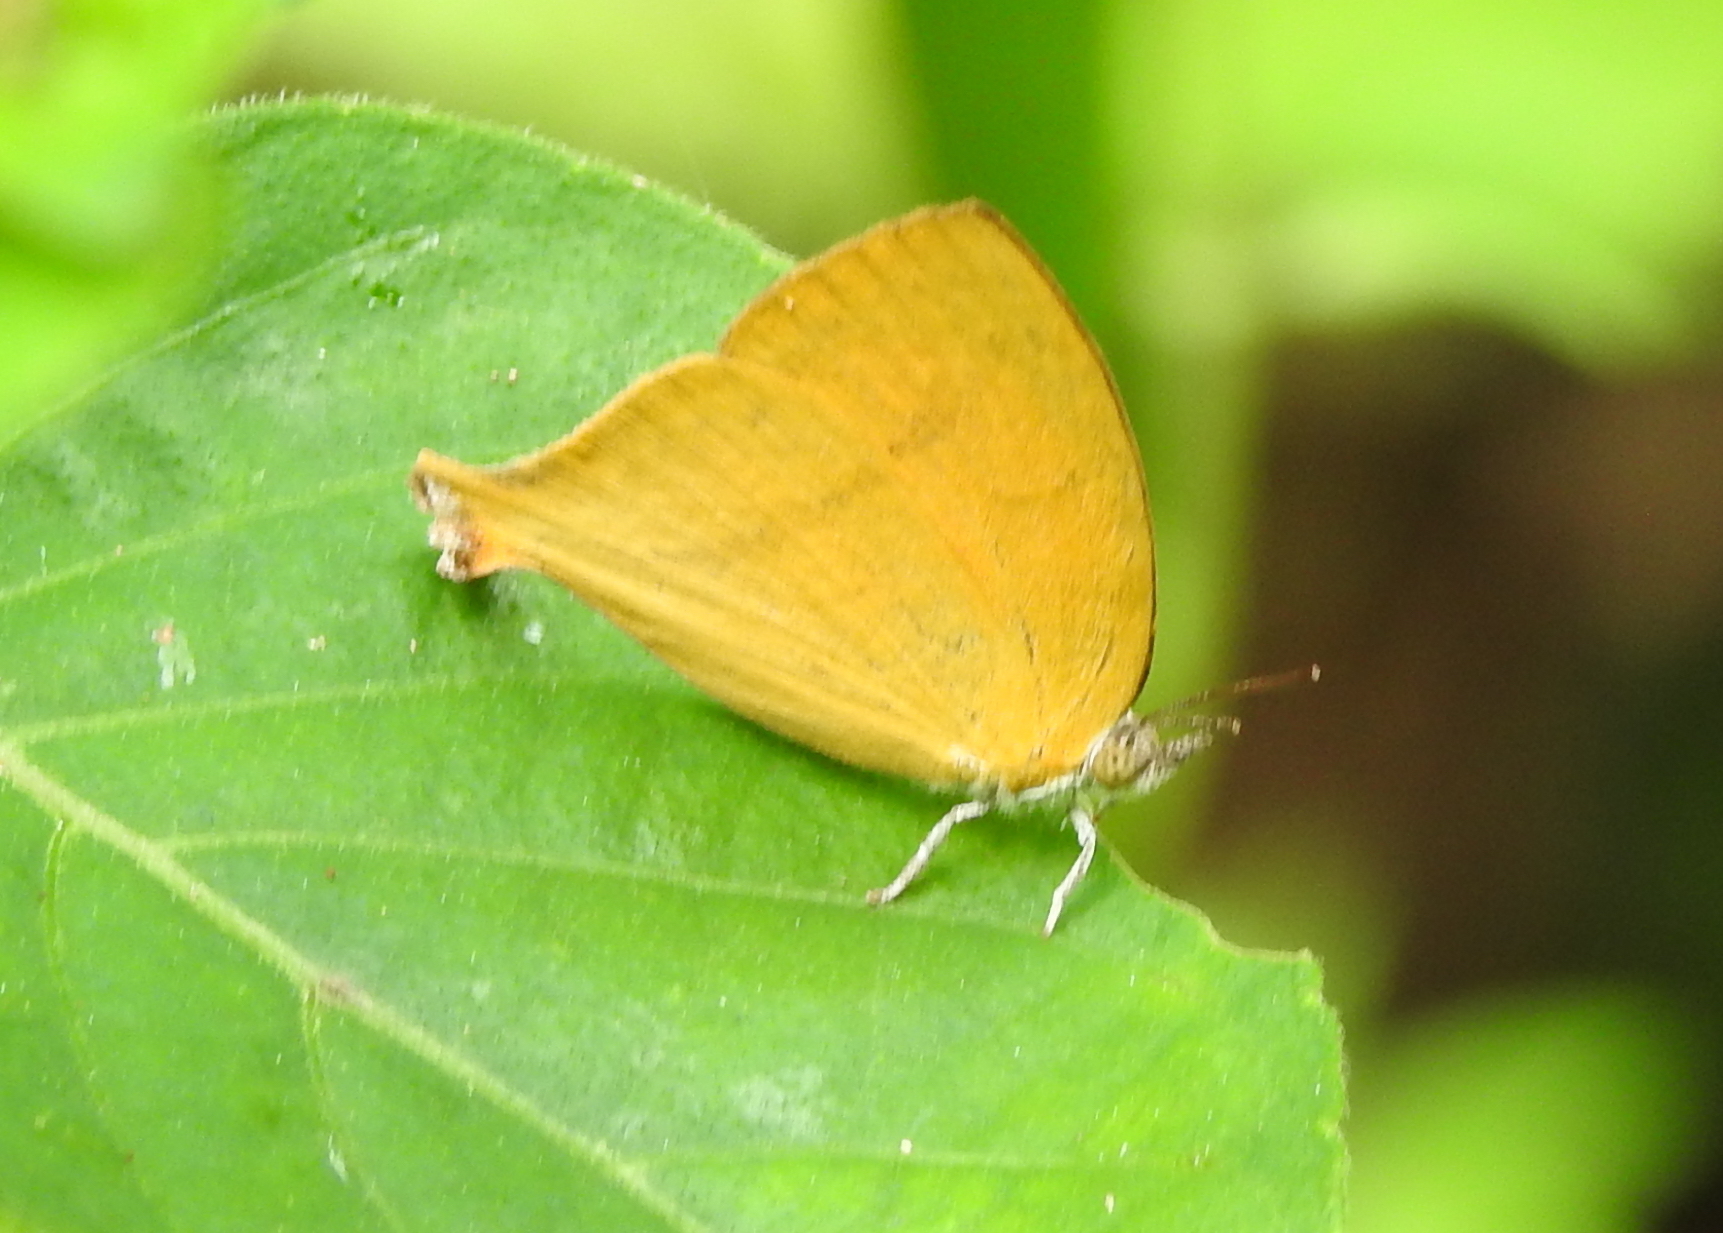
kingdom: Animalia
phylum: Arthropoda
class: Insecta
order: Lepidoptera
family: Lycaenidae
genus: Loxura
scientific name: Loxura atymnus
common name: Common yamfly
